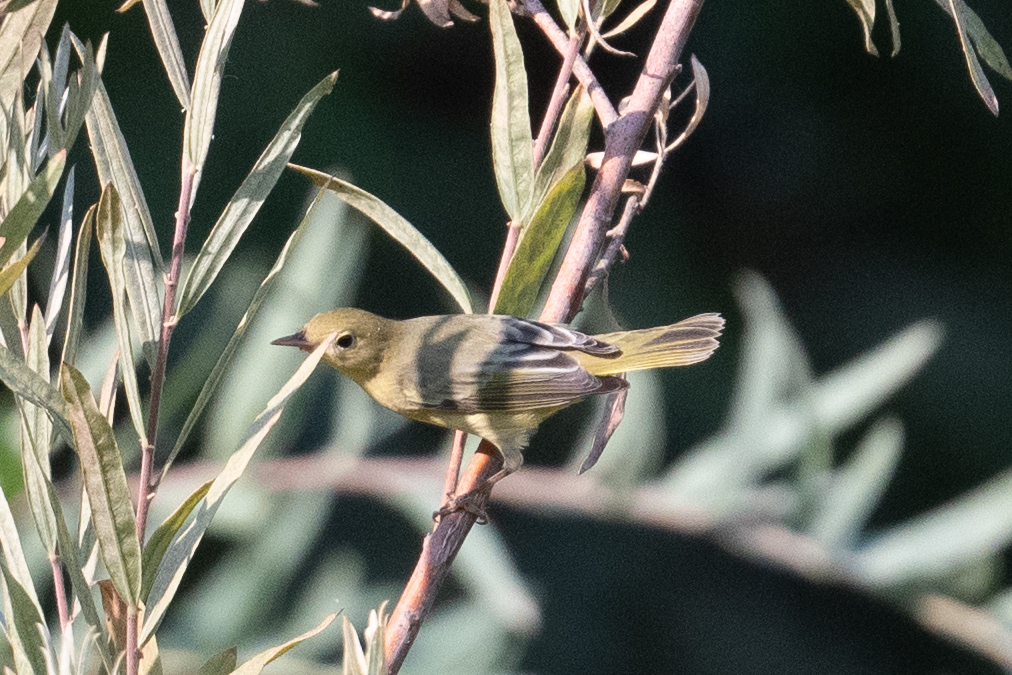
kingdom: Animalia
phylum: Chordata
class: Aves
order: Passeriformes
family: Parulidae
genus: Setophaga
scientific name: Setophaga petechia
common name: Yellow warbler
